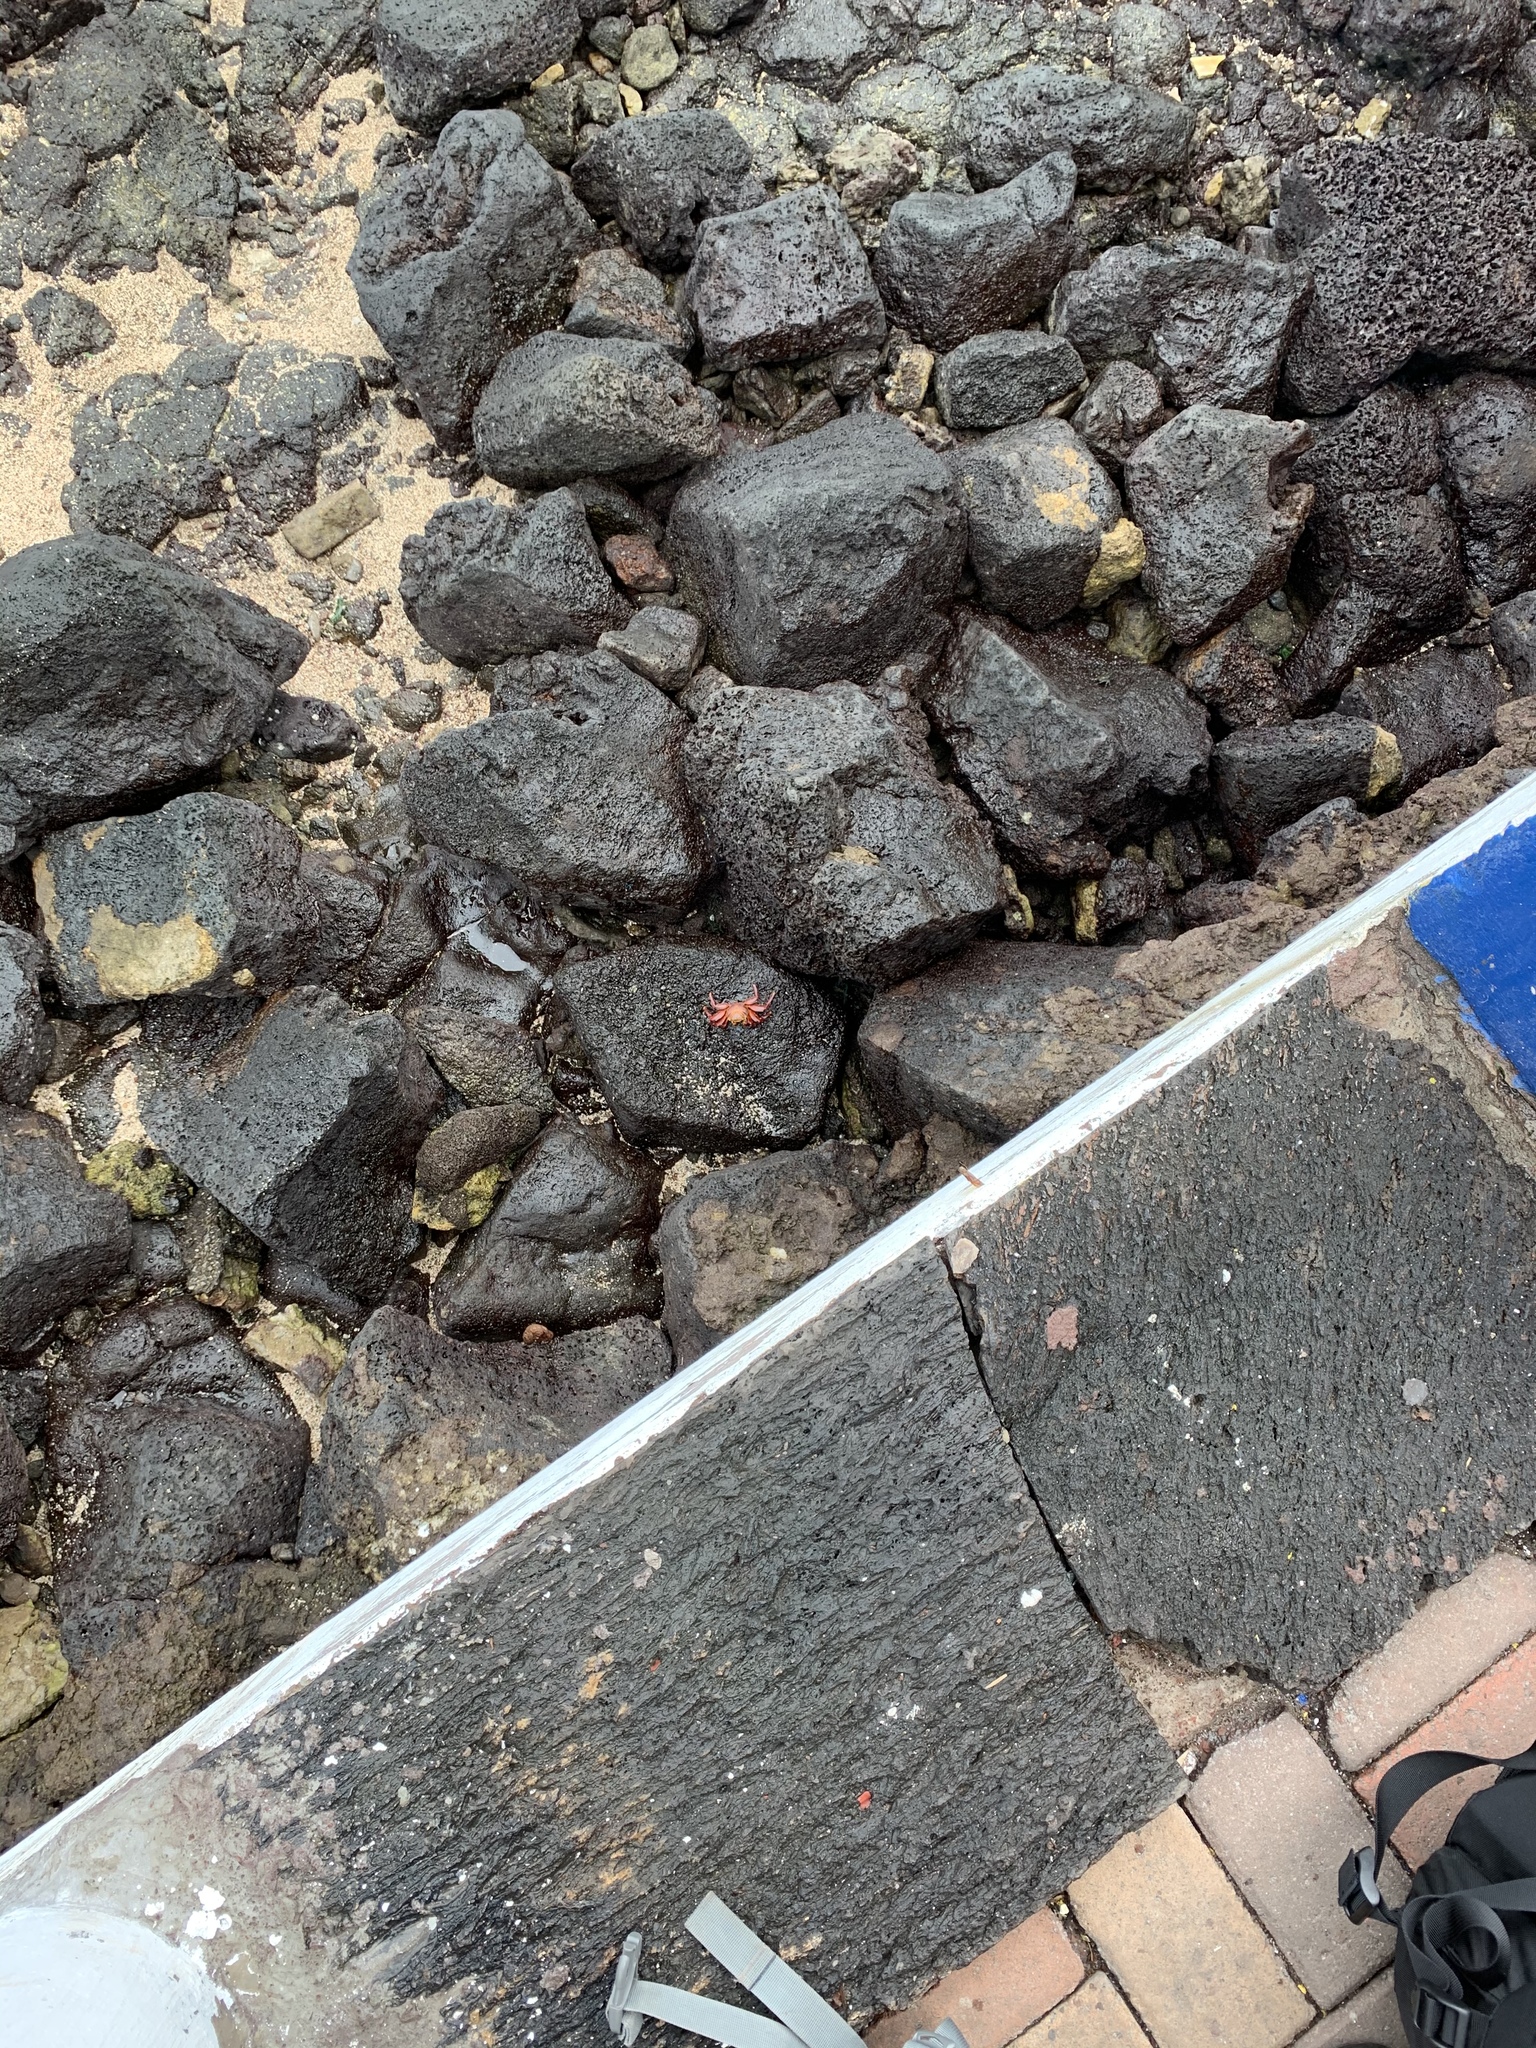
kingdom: Animalia
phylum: Arthropoda
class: Malacostraca
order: Decapoda
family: Grapsidae
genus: Grapsus
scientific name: Grapsus grapsus
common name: Sally lightfoot
